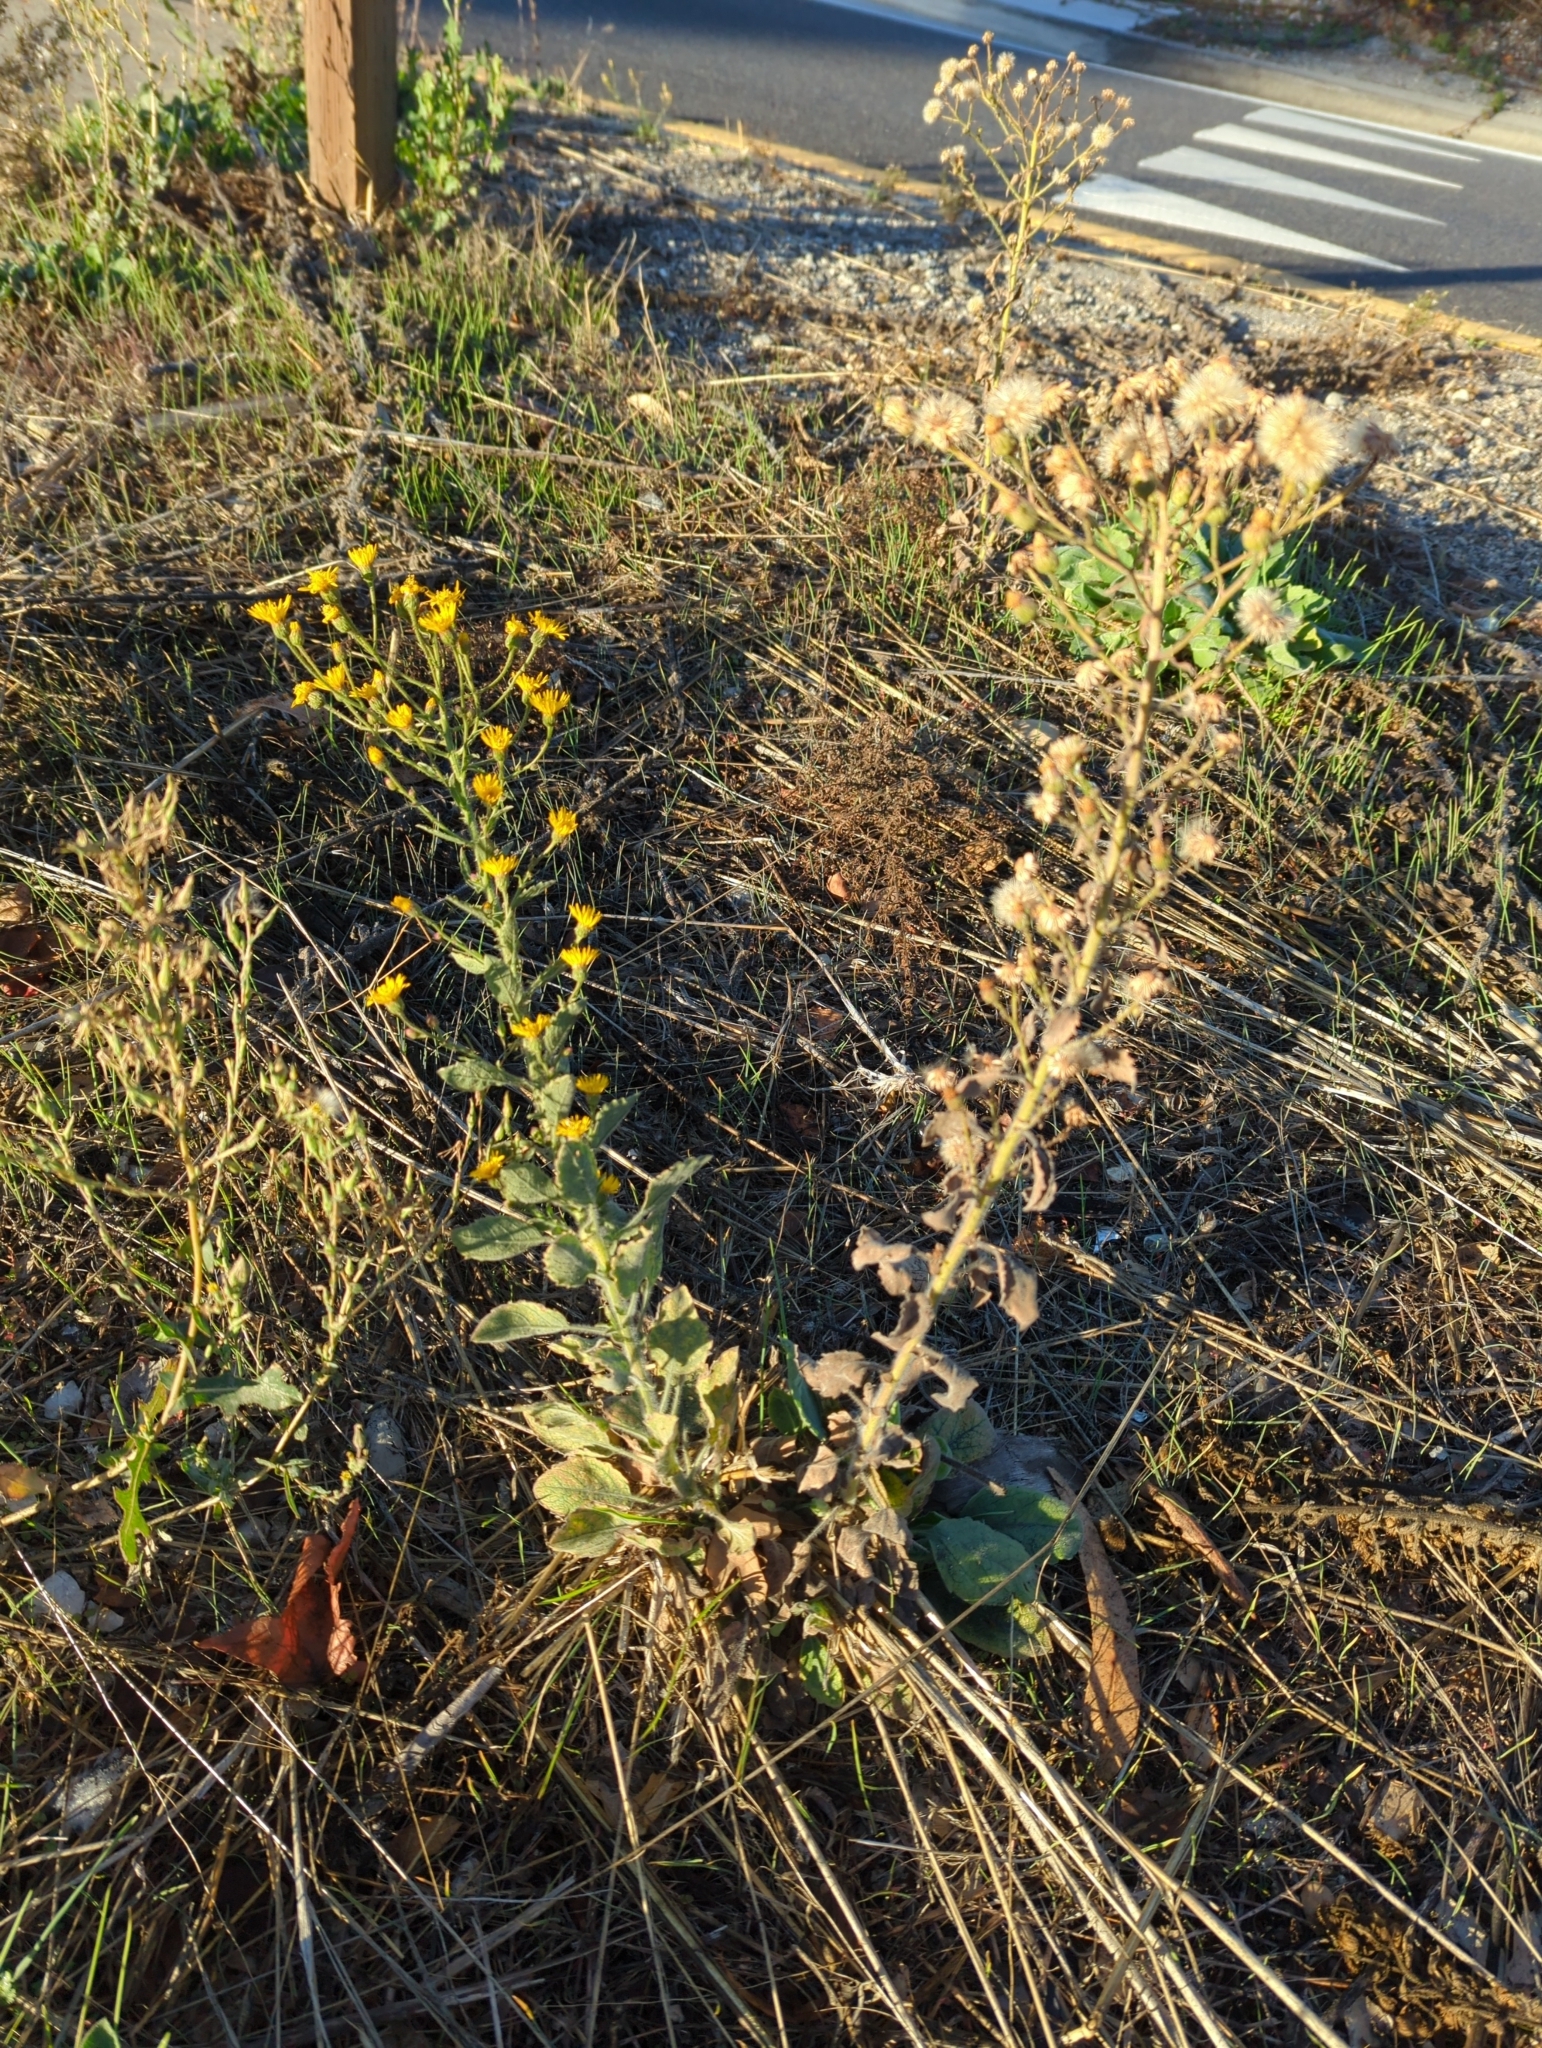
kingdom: Plantae
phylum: Tracheophyta
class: Magnoliopsida
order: Asterales
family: Asteraceae
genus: Heterotheca
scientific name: Heterotheca grandiflora
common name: Telegraphweed
